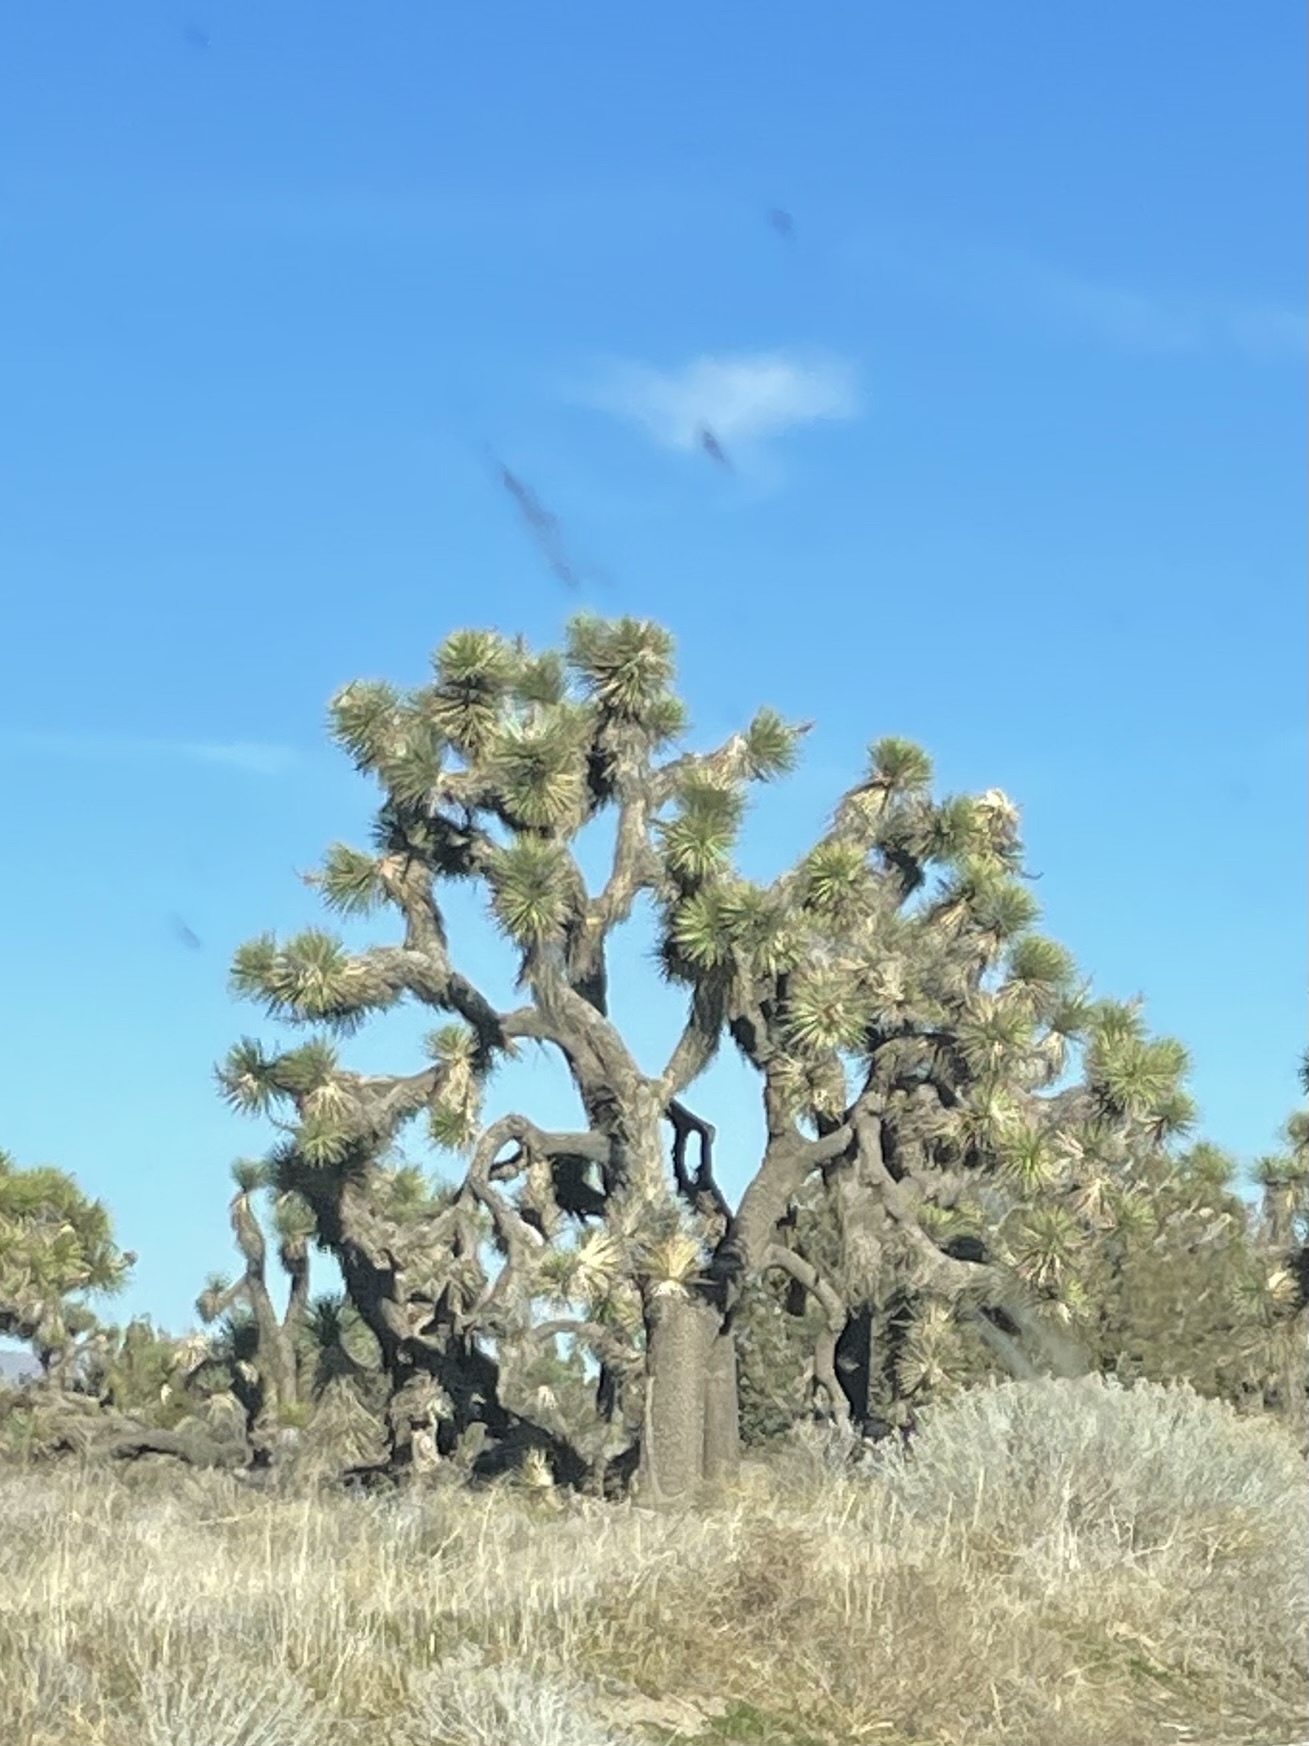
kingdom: Plantae
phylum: Tracheophyta
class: Liliopsida
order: Asparagales
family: Asparagaceae
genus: Yucca
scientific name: Yucca brevifolia
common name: Joshua tree
